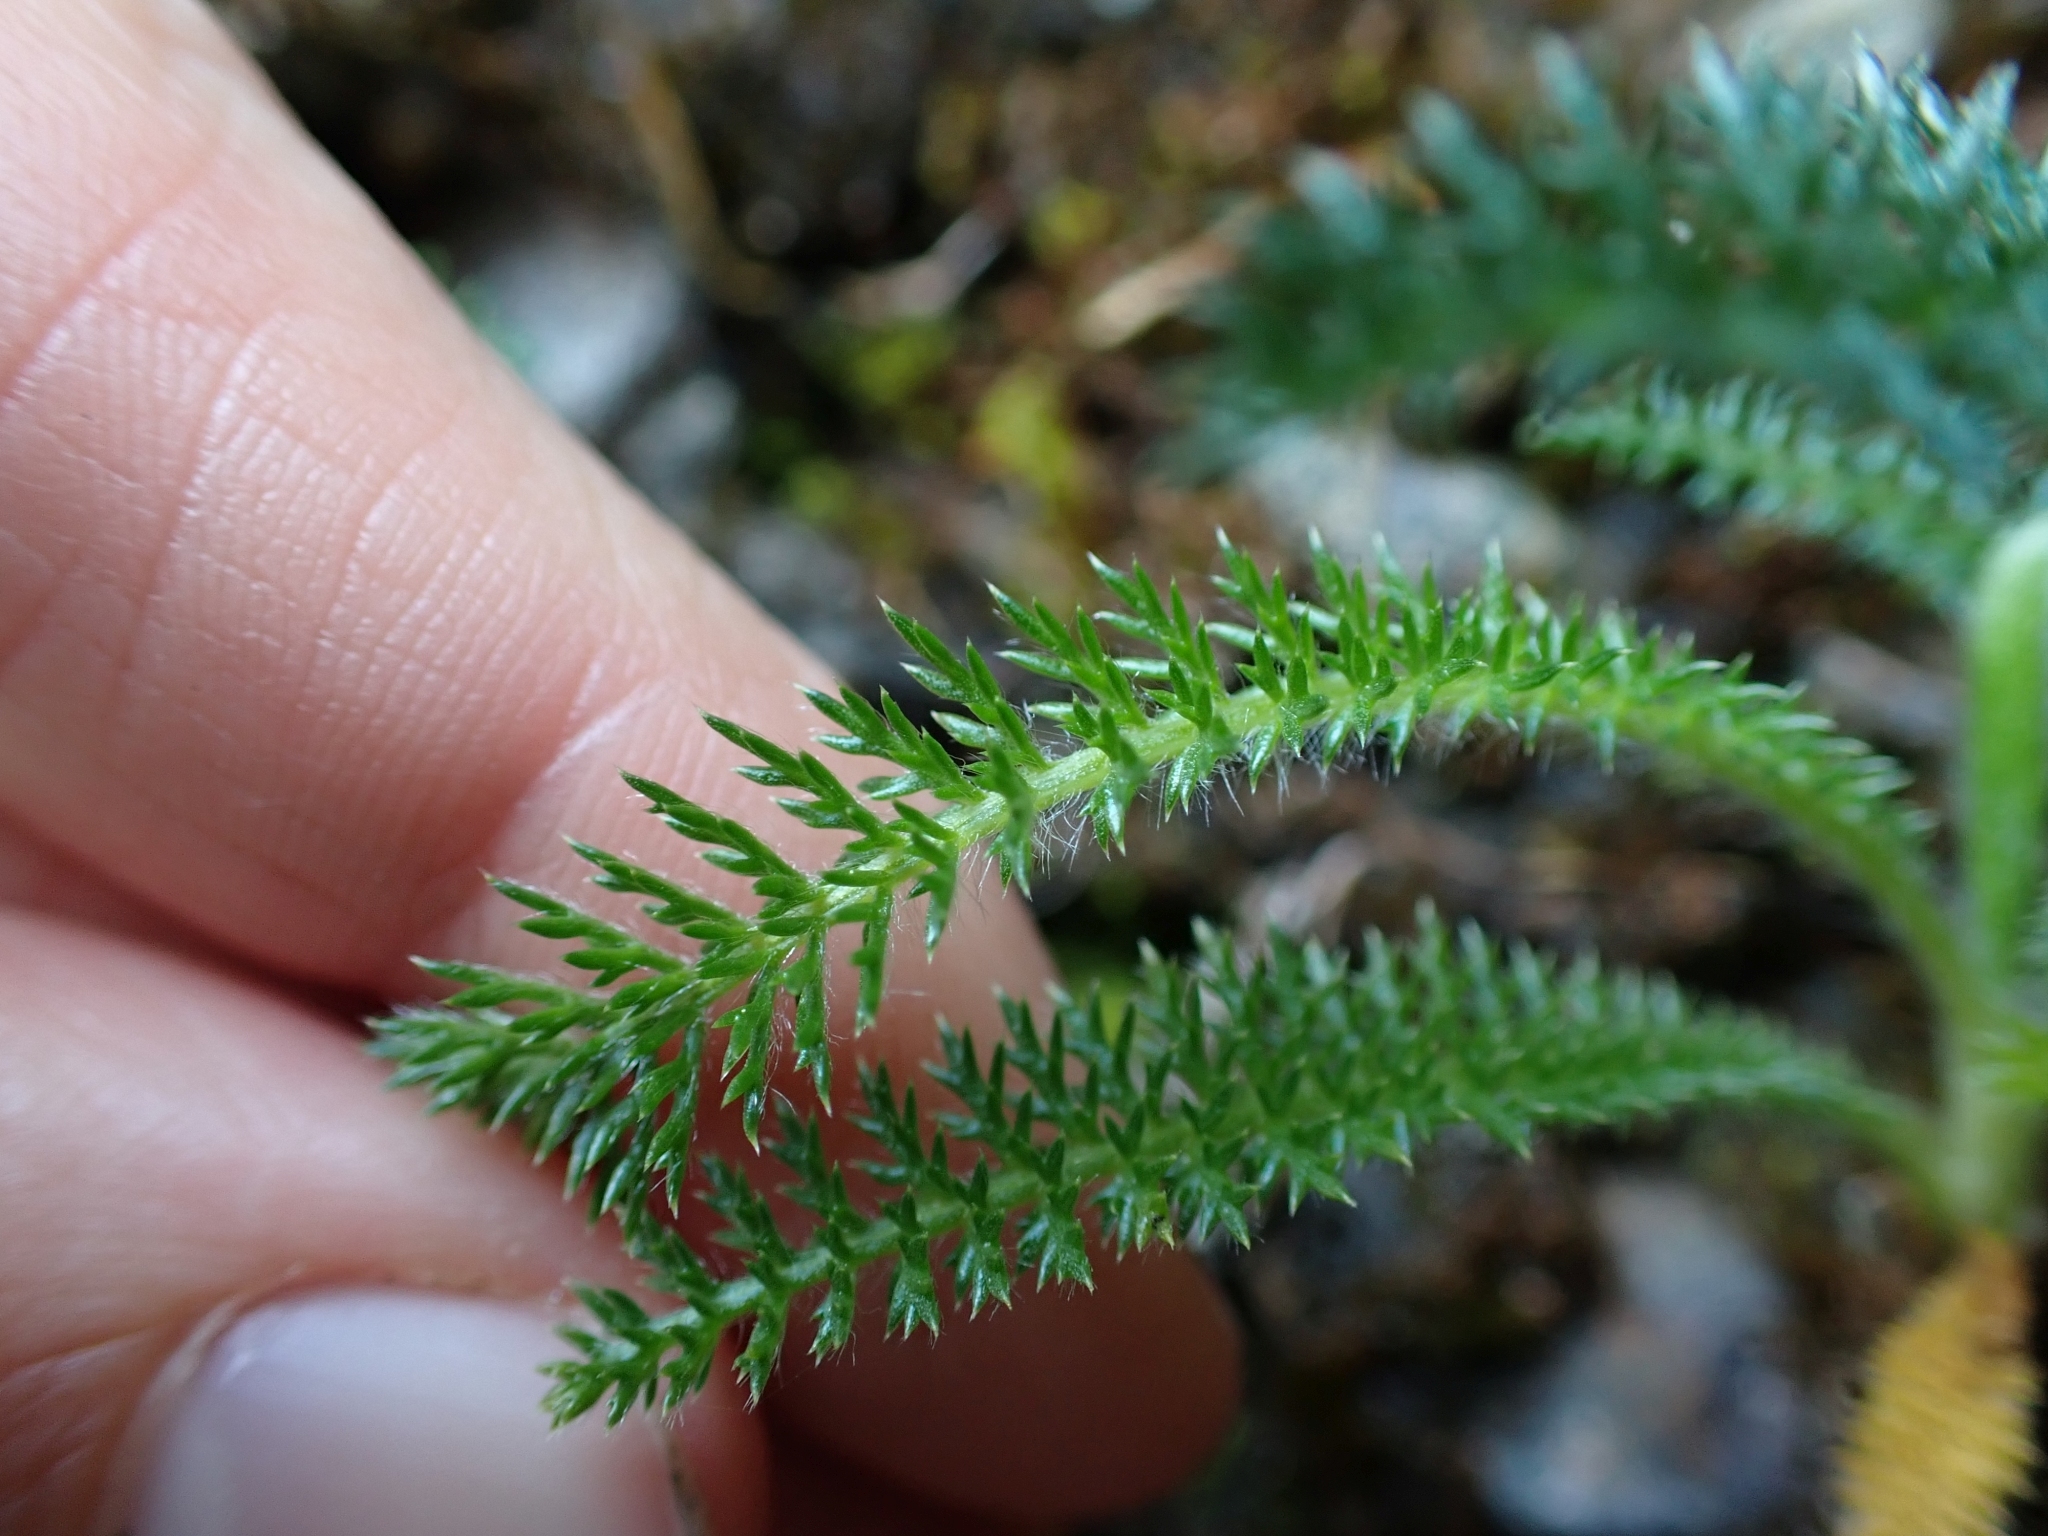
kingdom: Plantae
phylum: Tracheophyta
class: Magnoliopsida
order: Asterales
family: Asteraceae
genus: Achillea
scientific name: Achillea millefolium
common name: Yarrow
